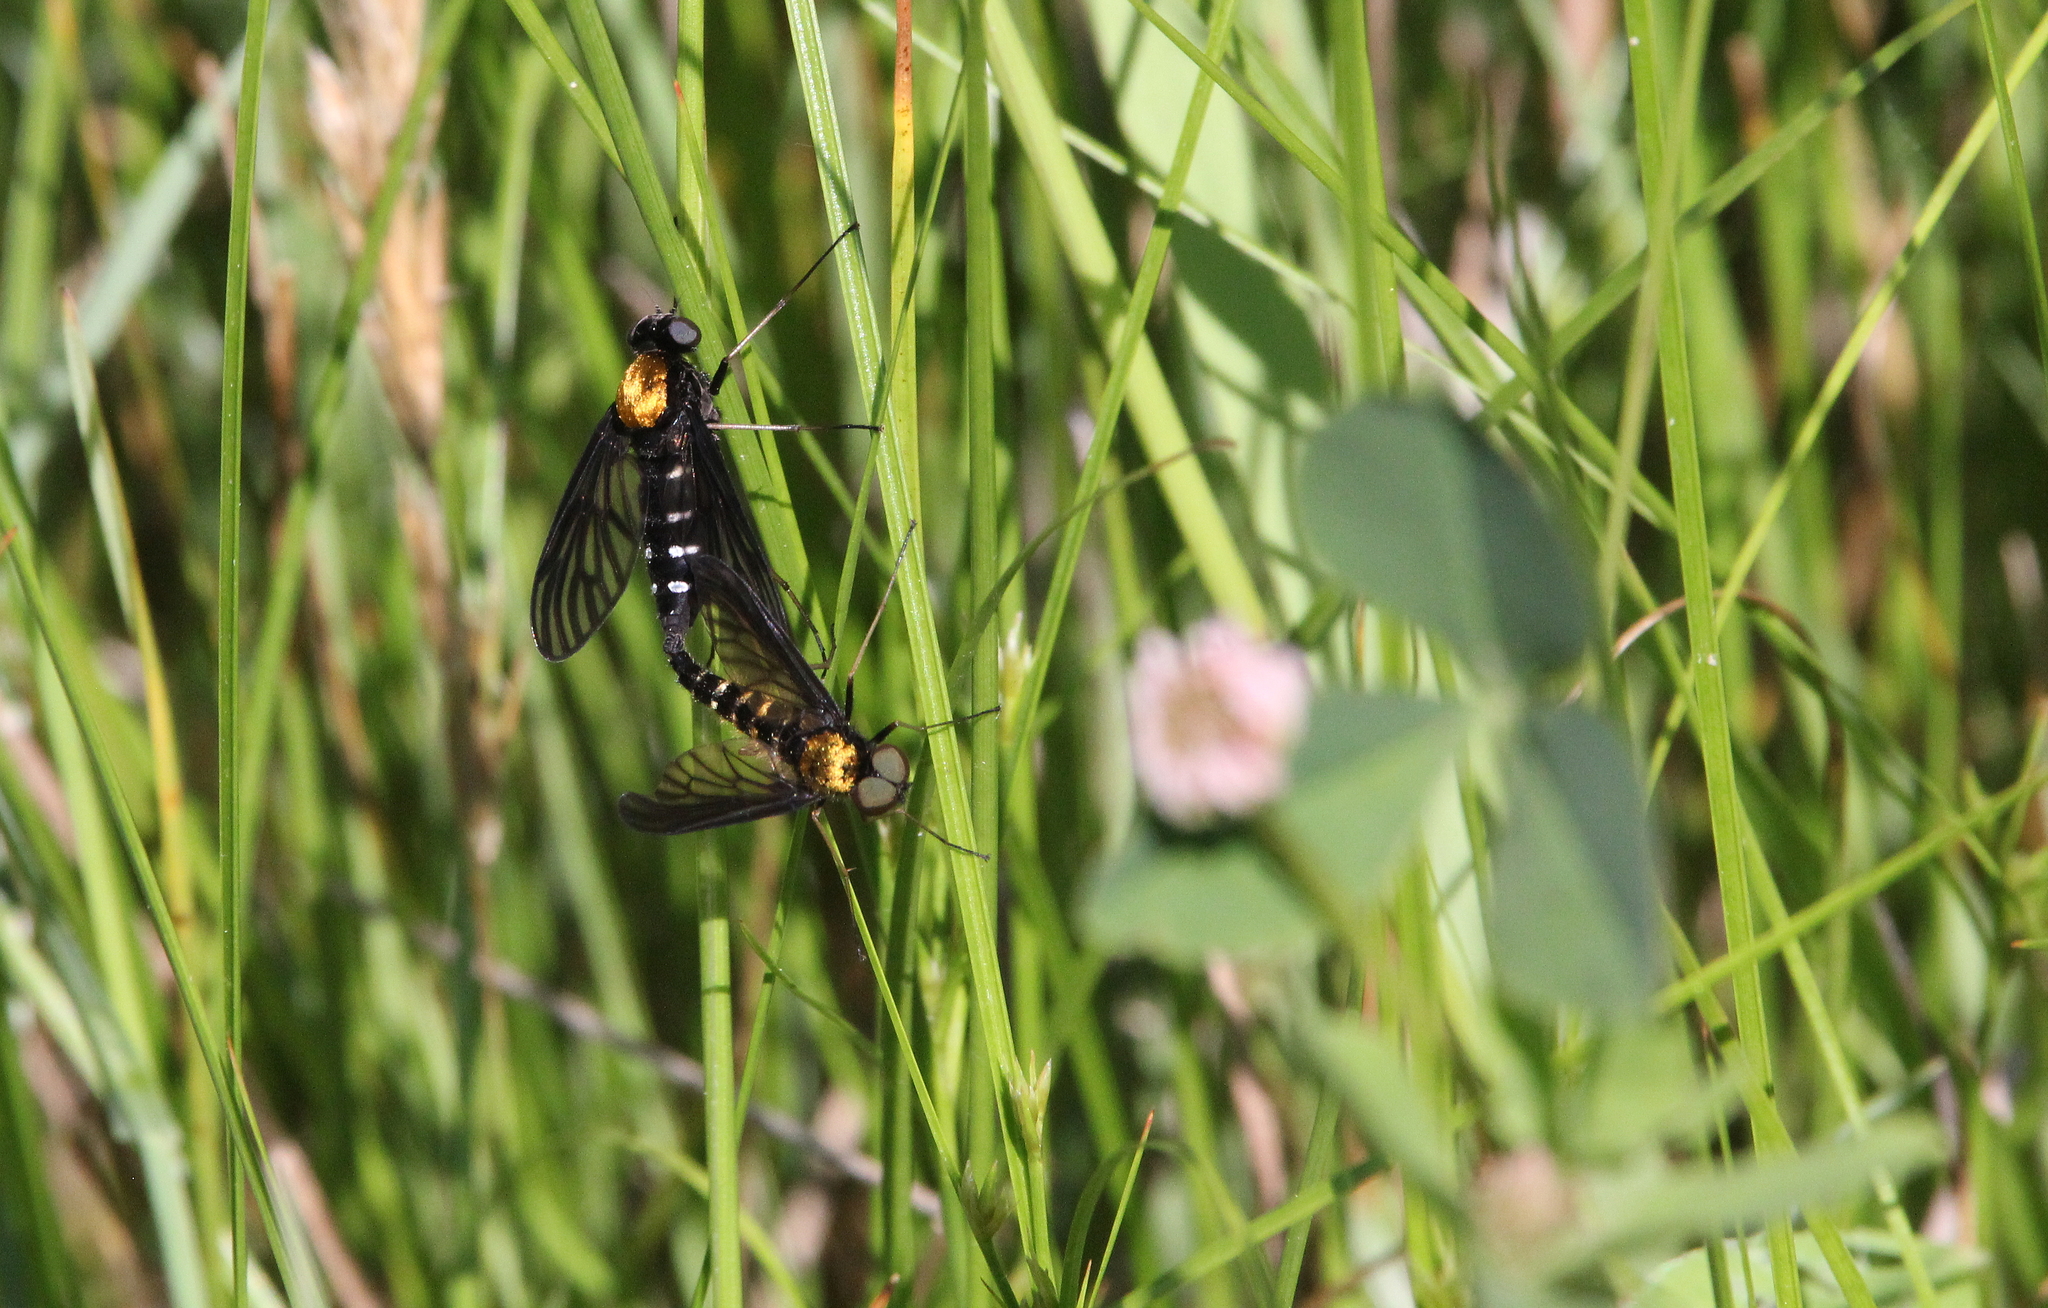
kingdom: Animalia
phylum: Arthropoda
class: Insecta
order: Diptera
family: Rhagionidae
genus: Chrysopilus
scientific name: Chrysopilus thoracicus
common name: Golden-backed snipe fly
